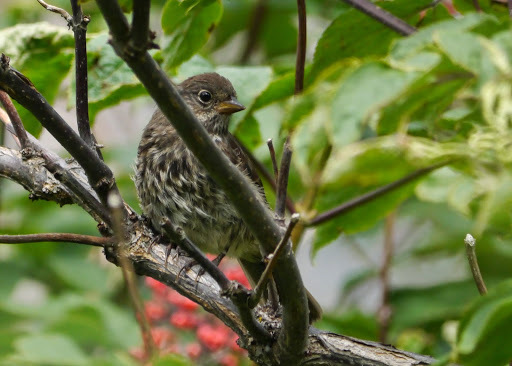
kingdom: Animalia
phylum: Chordata
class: Aves
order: Passeriformes
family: Passerellidae
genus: Passerella
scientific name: Passerella iliaca
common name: Fox sparrow
